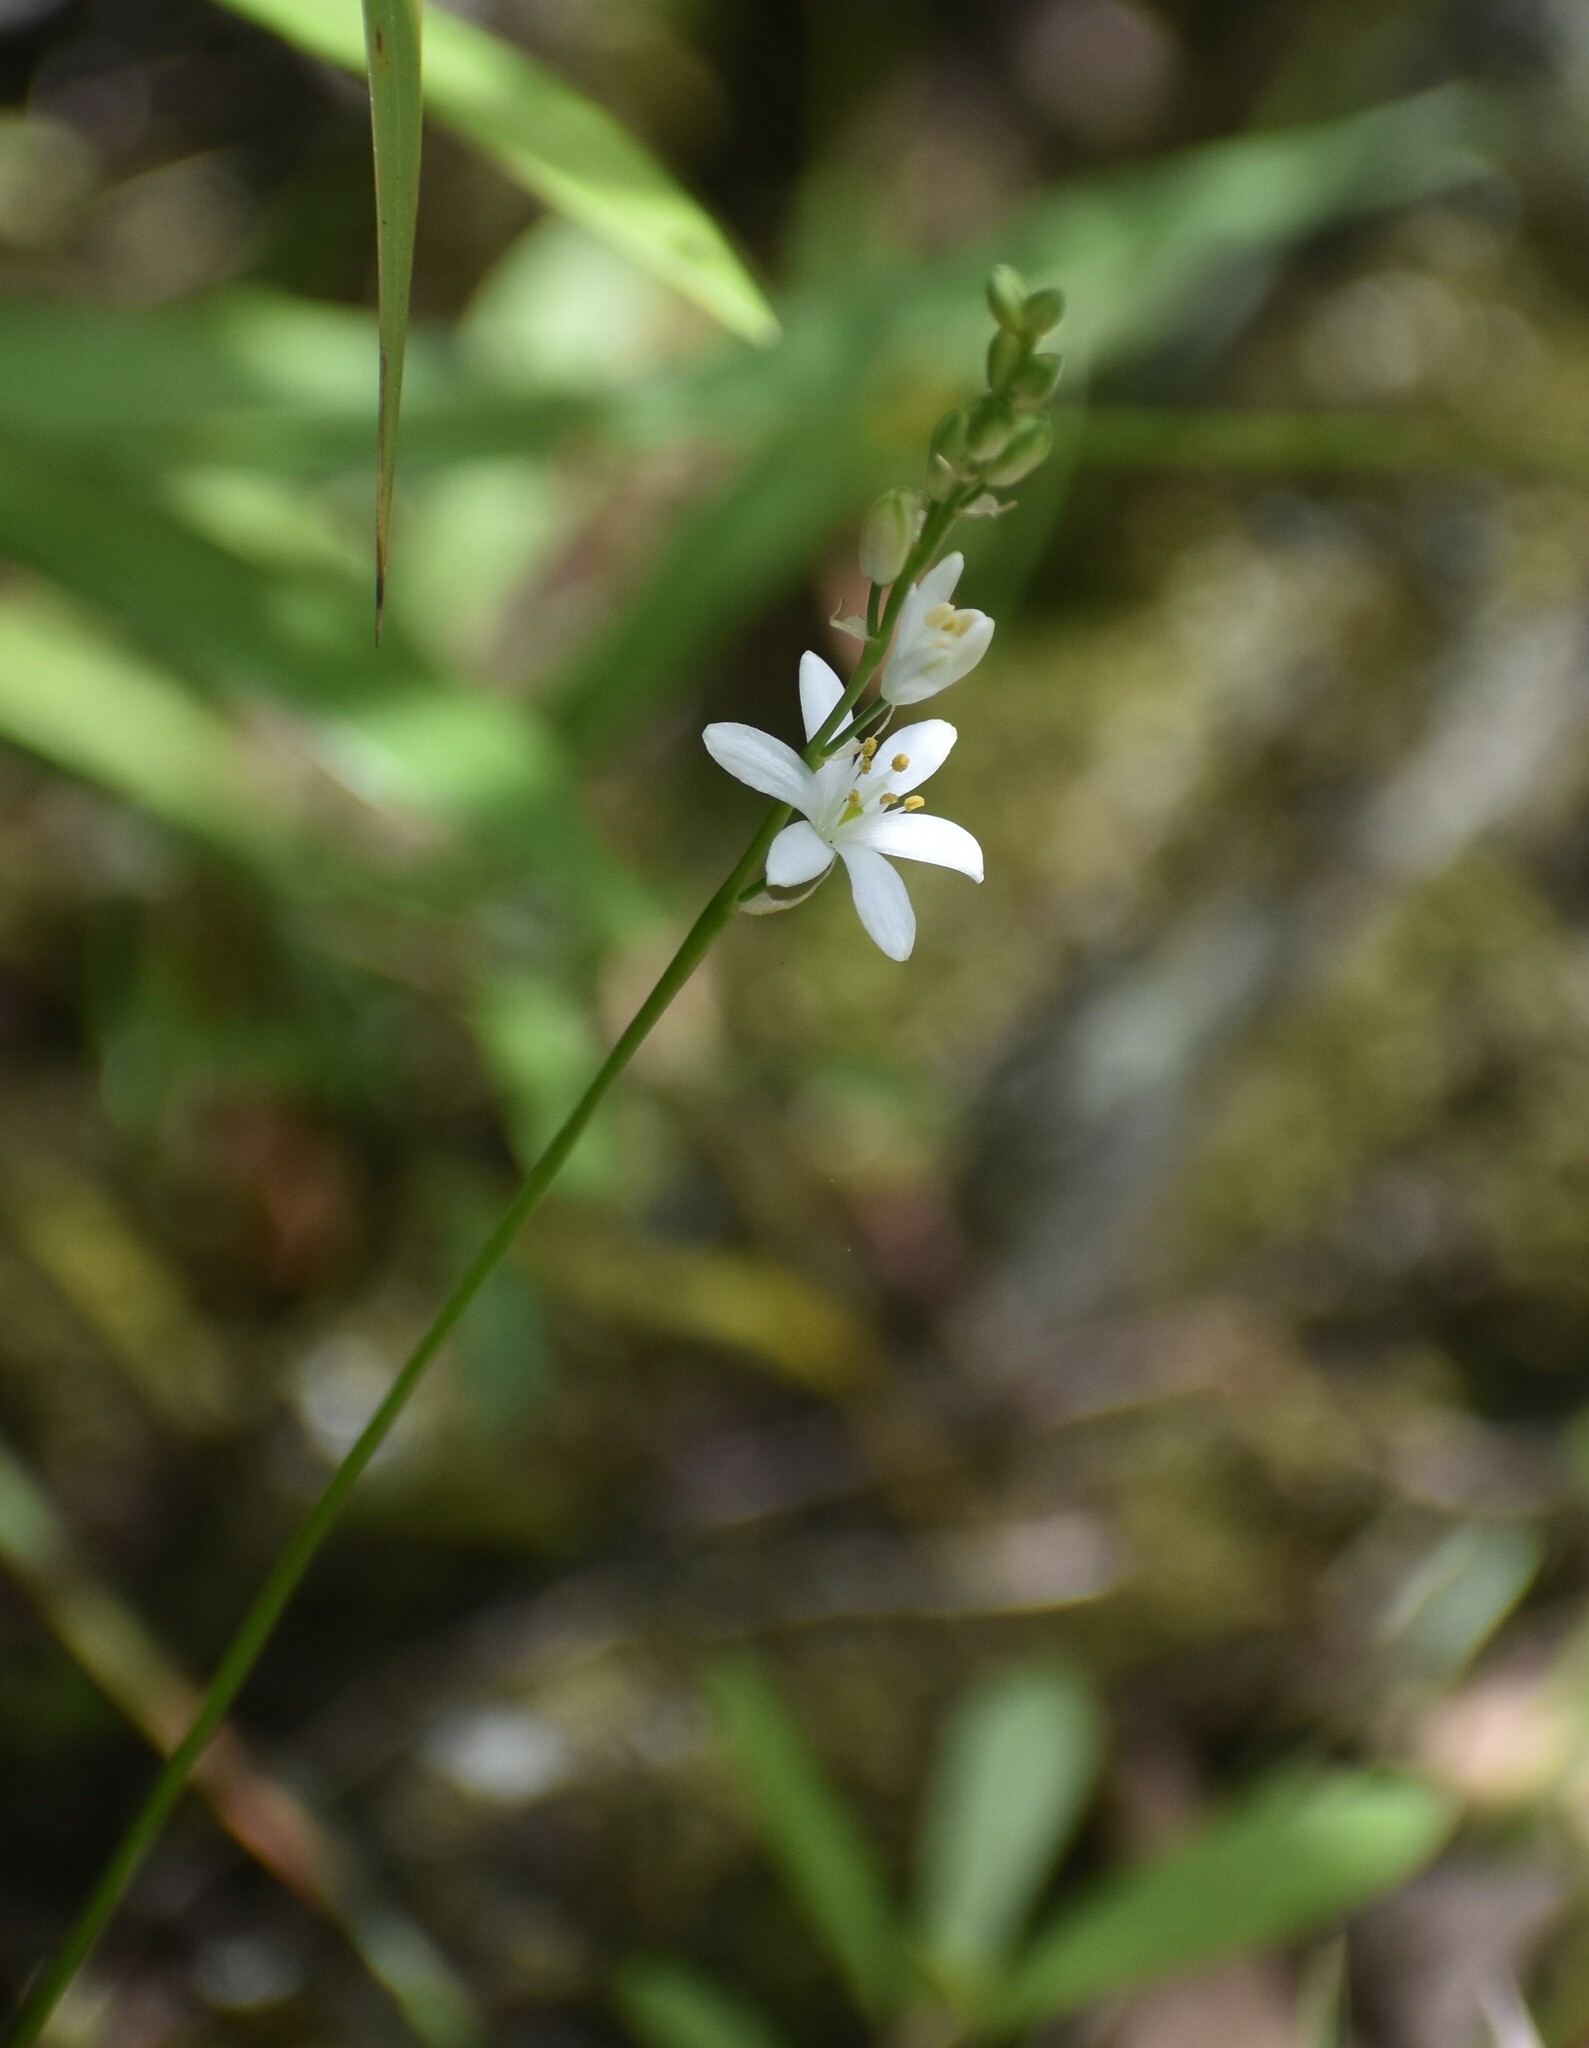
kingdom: Plantae
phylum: Tracheophyta
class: Liliopsida
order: Asparagales
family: Asparagaceae
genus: Ornithogalum
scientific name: Ornithogalum graminifolium
